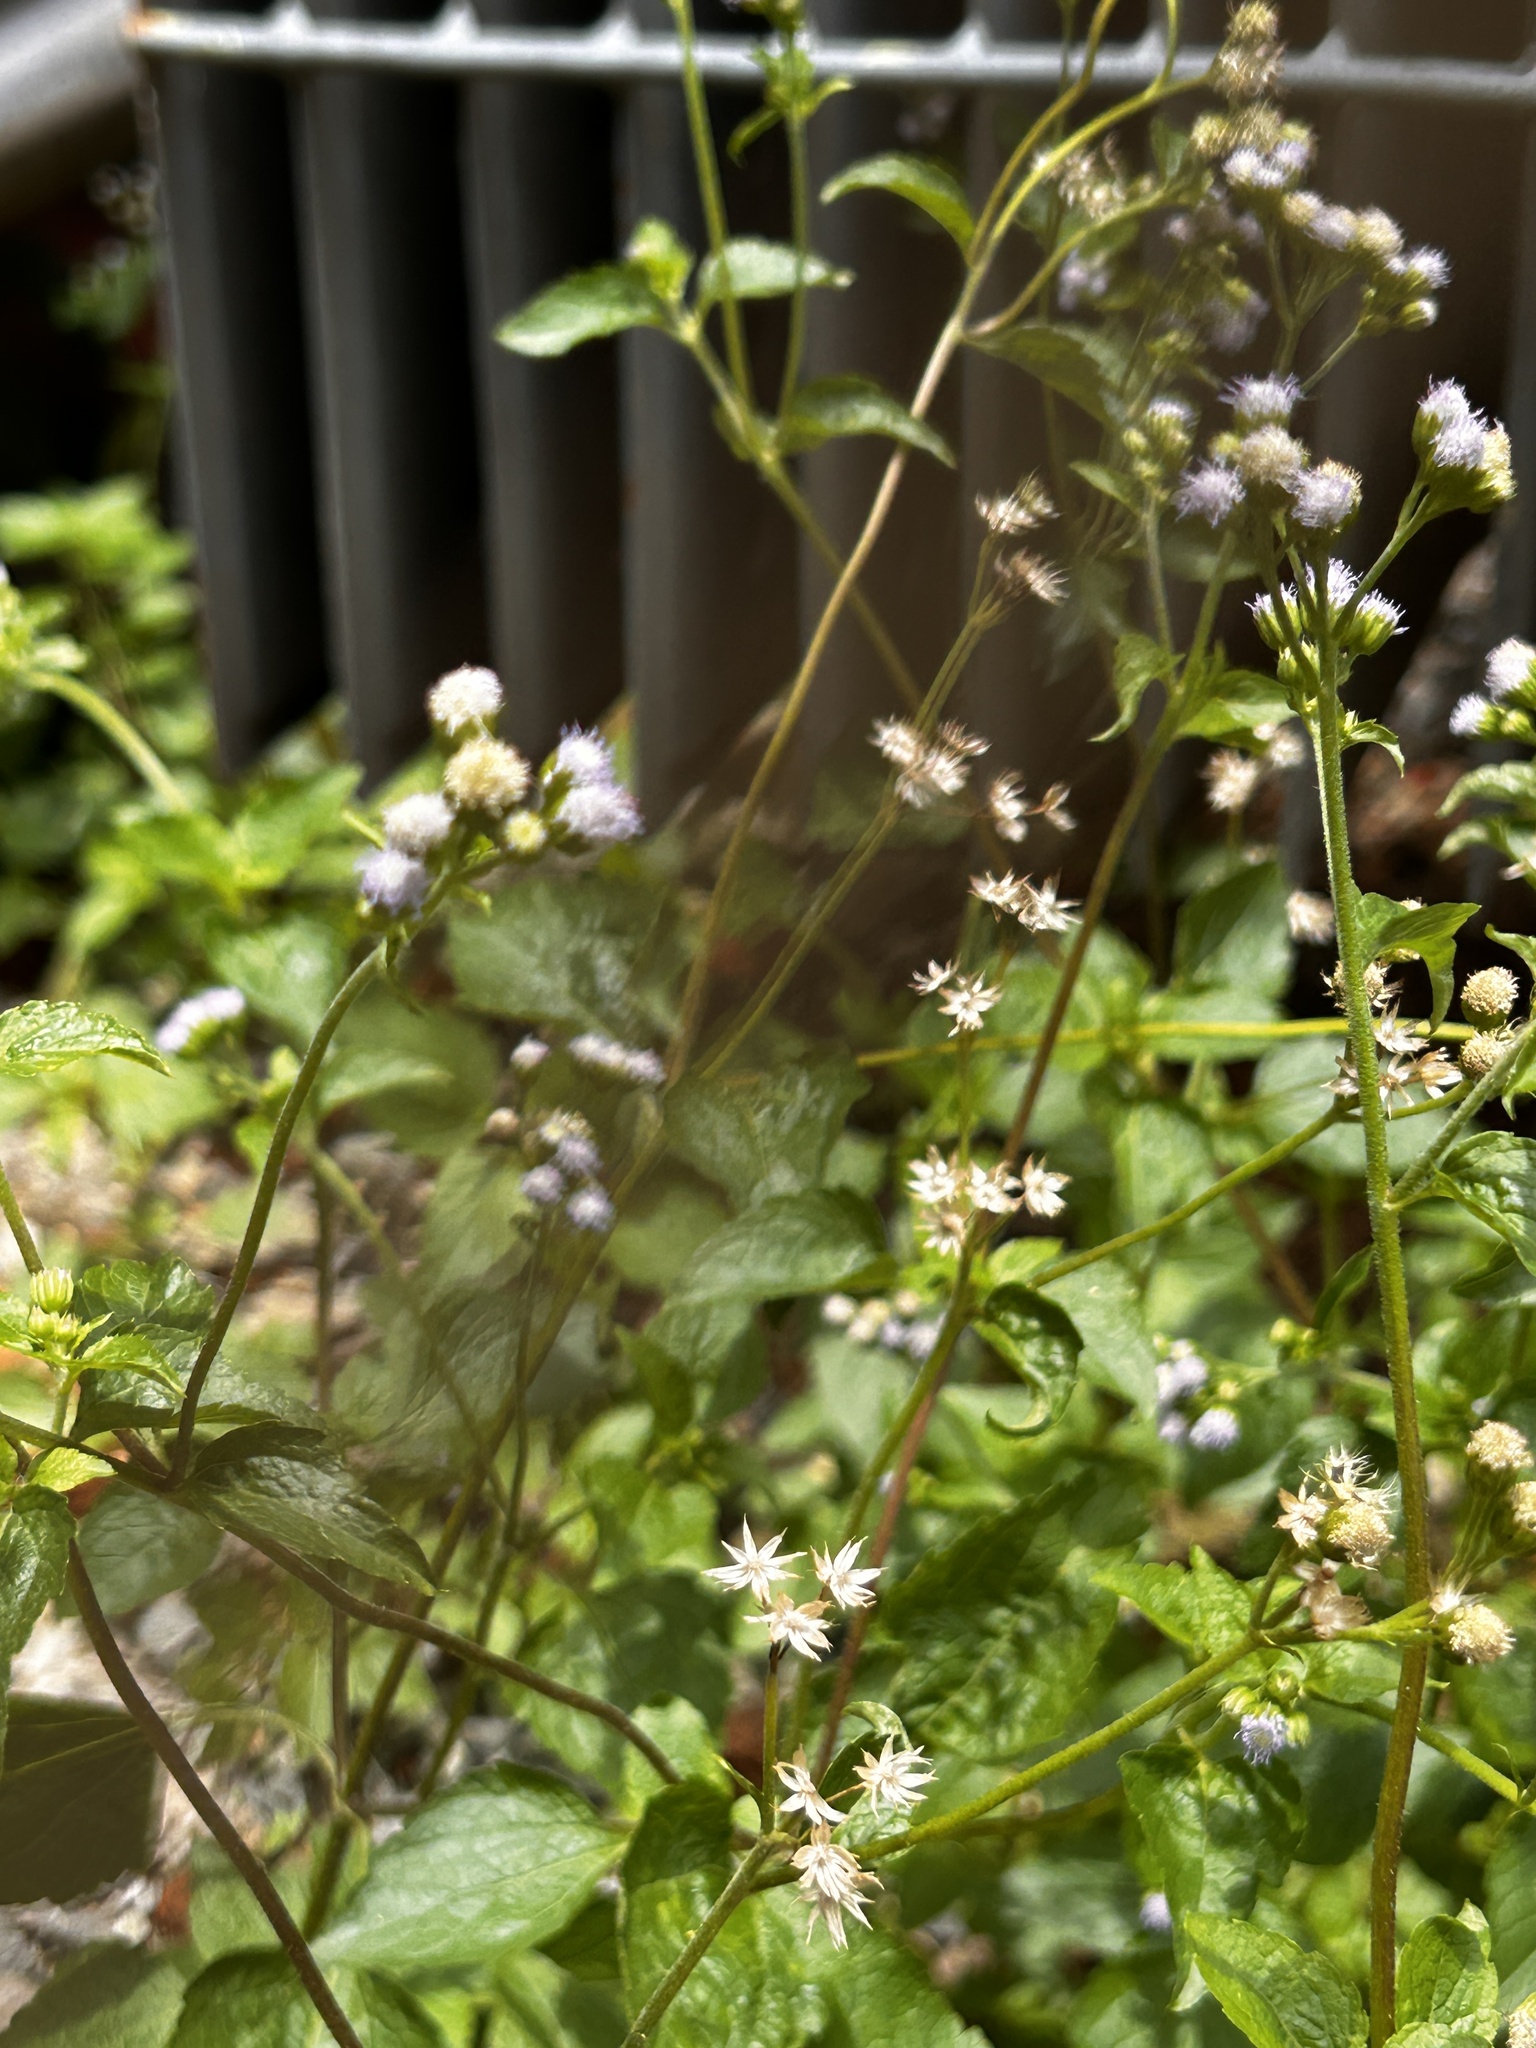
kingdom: Plantae
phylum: Tracheophyta
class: Magnoliopsida
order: Asterales
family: Asteraceae
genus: Cyanthillium
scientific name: Cyanthillium cinereum
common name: Little ironweed
